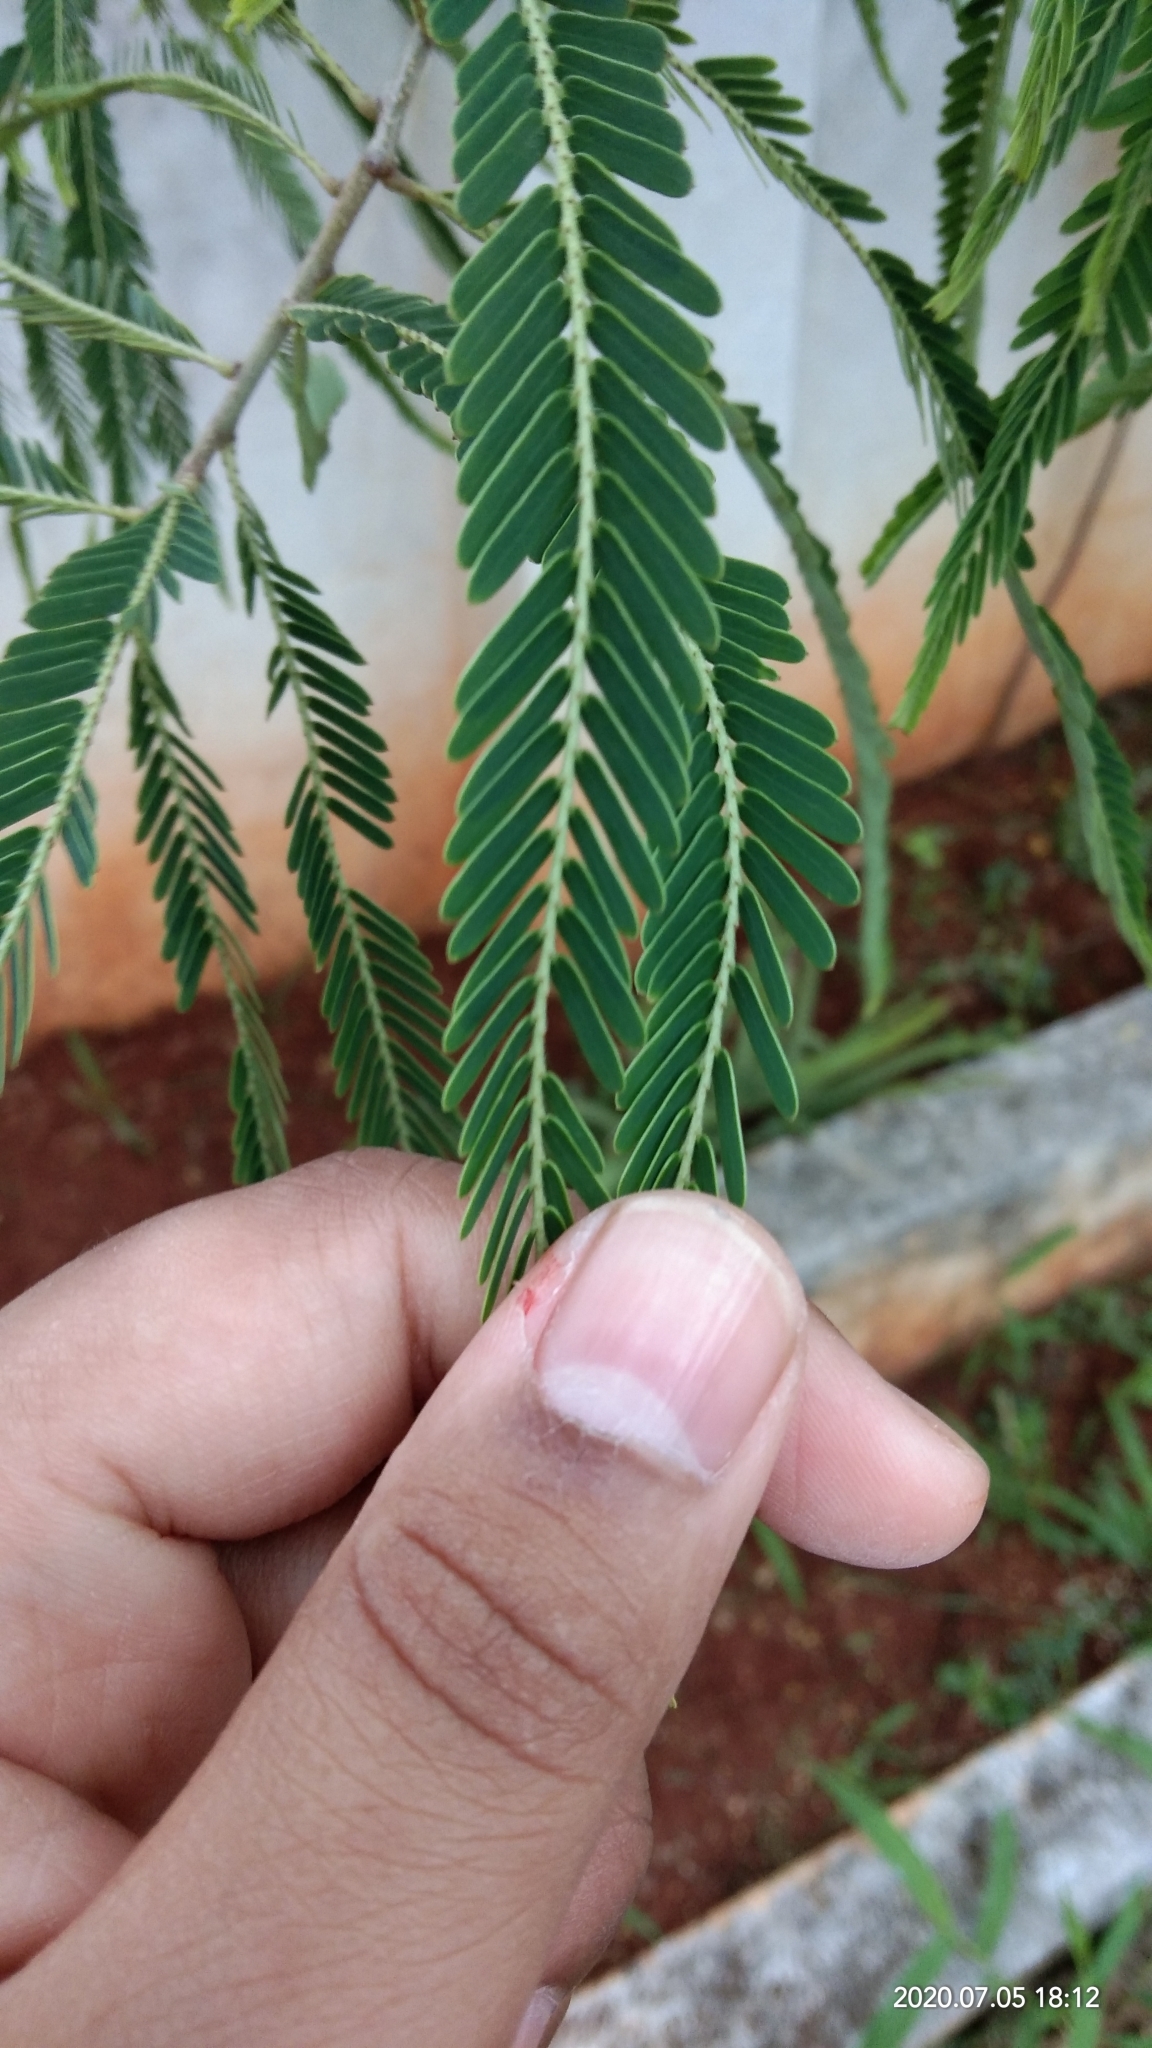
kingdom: Plantae
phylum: Tracheophyta
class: Magnoliopsida
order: Malpighiales
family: Phyllanthaceae
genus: Phyllanthus
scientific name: Phyllanthus emblica
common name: Indian gooseberry
